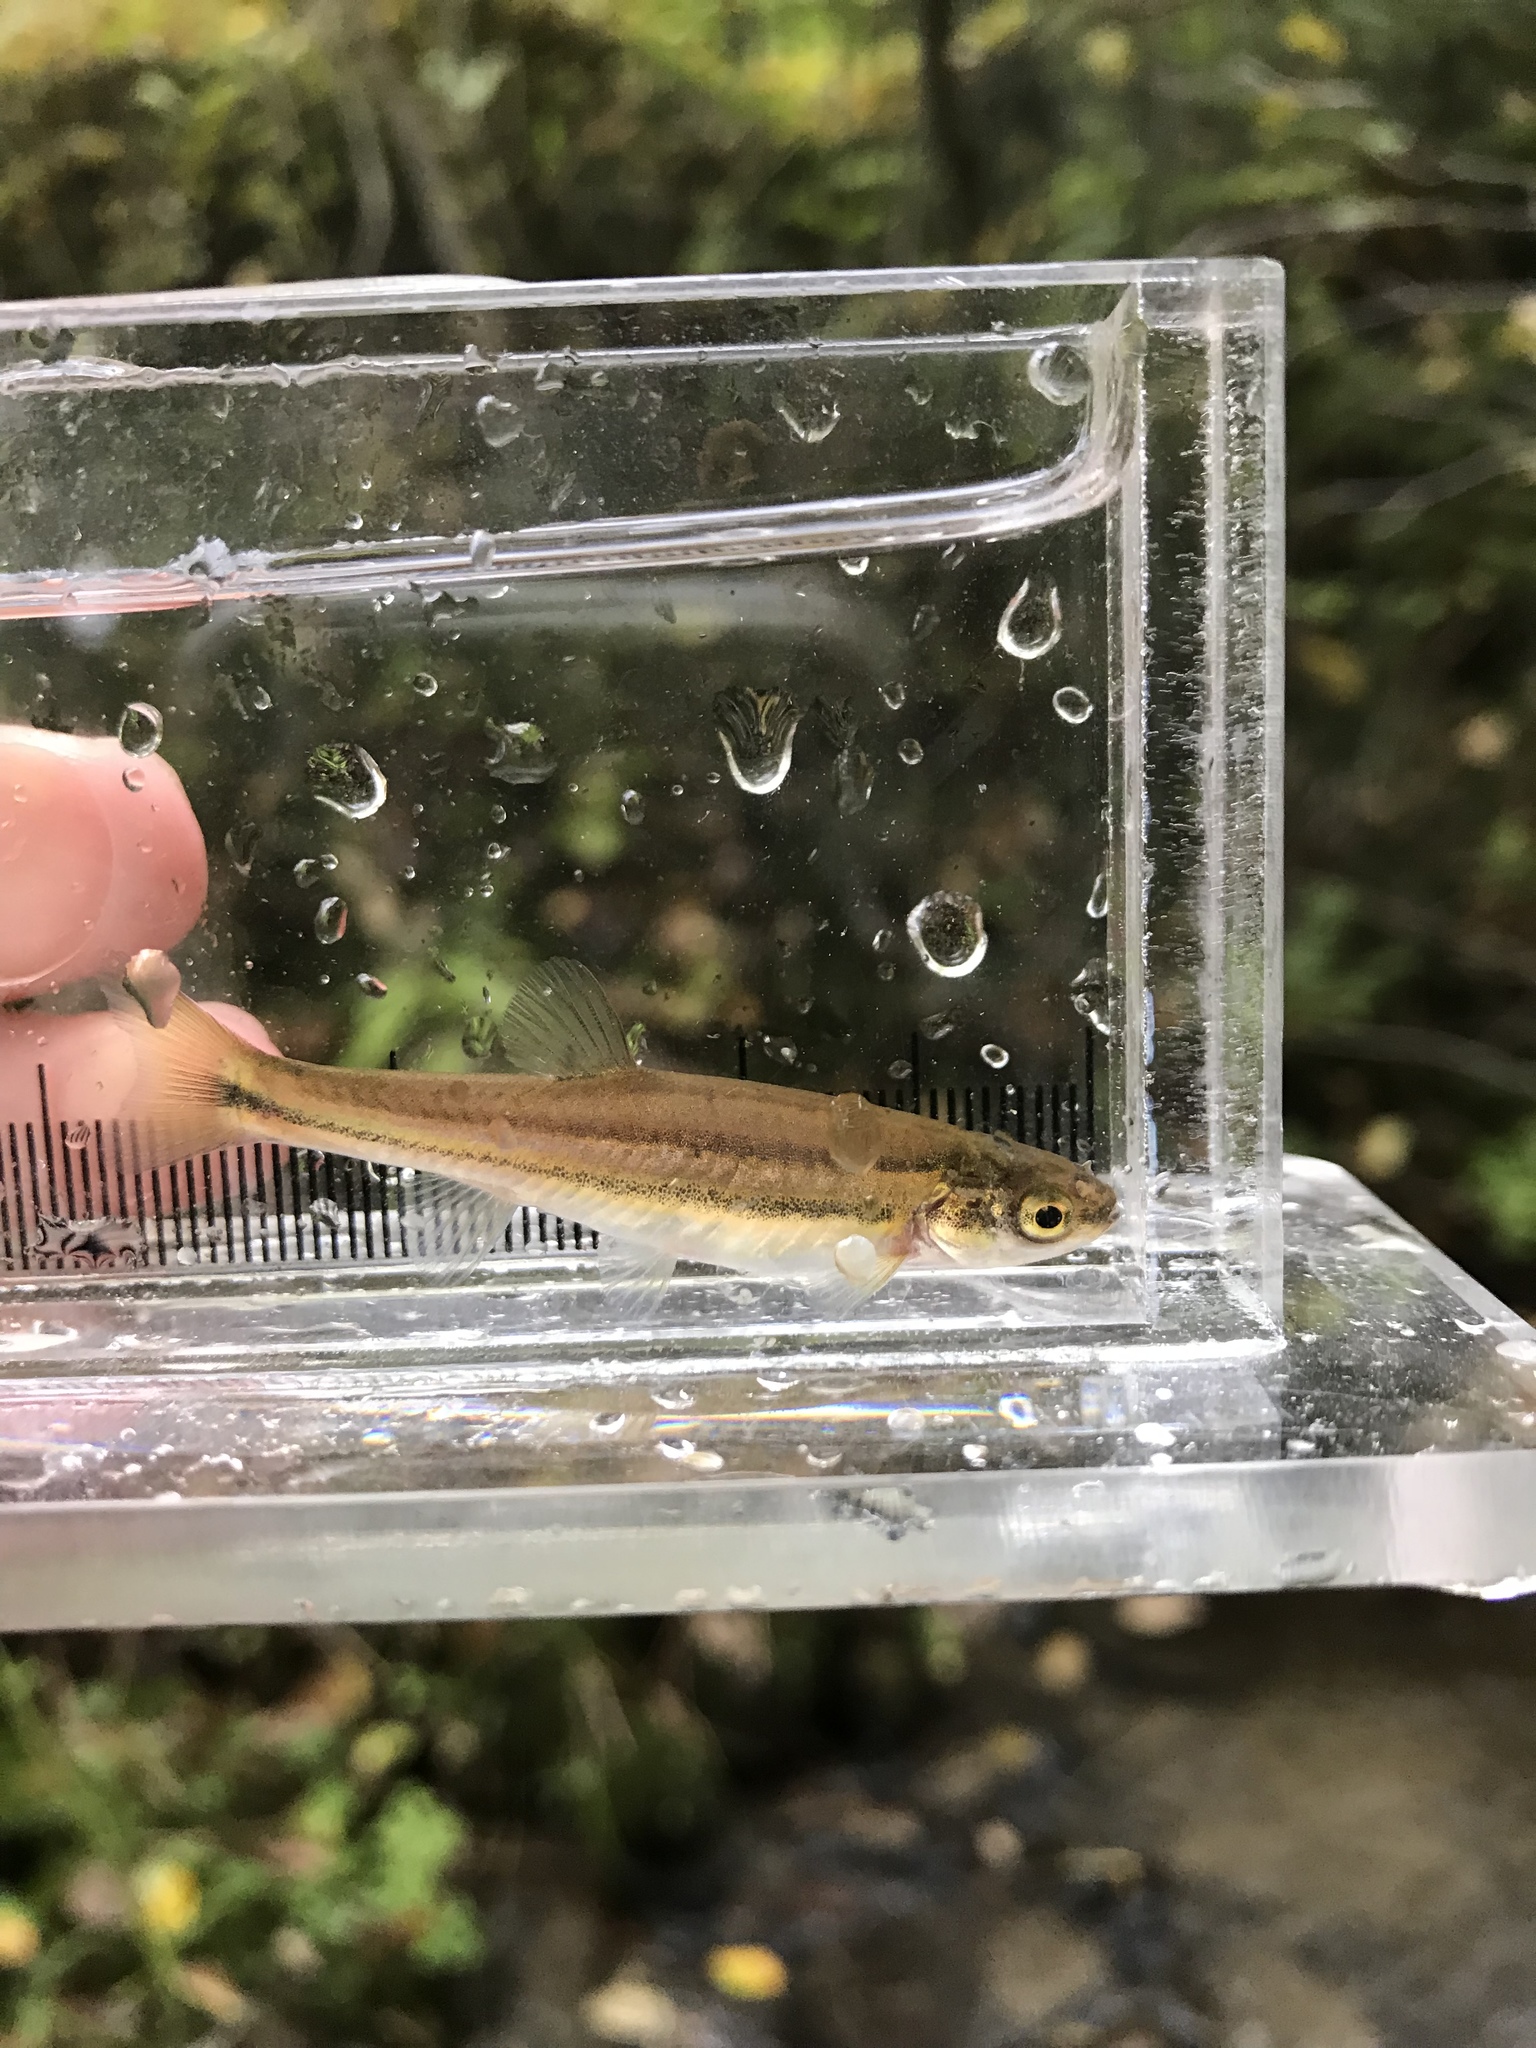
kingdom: Animalia
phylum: Chordata
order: Cypriniformes
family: Cyprinidae
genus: Chrosomus
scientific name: Chrosomus eos
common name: Northern redbelly dace
